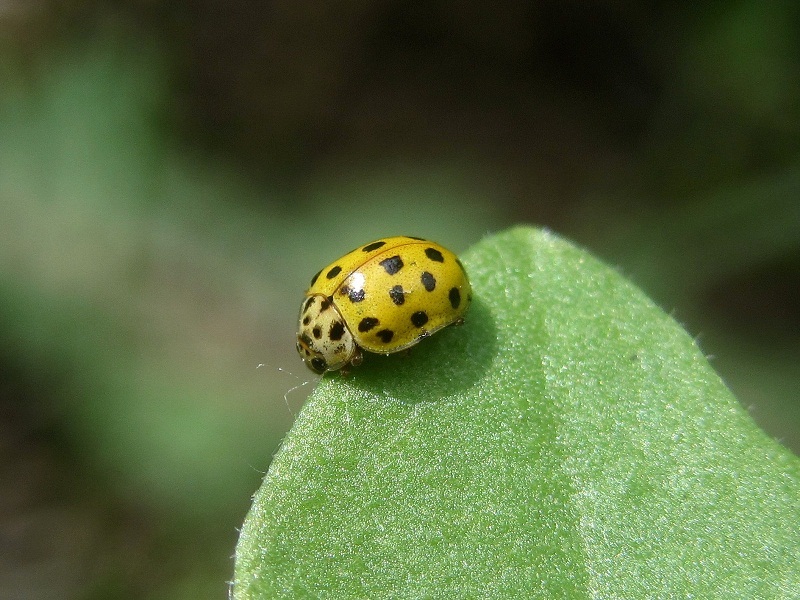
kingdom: Animalia
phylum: Arthropoda
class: Insecta
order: Coleoptera
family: Coccinellidae
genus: Psyllobora
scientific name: Psyllobora vigintiduopunctata
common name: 22-spot ladybird
